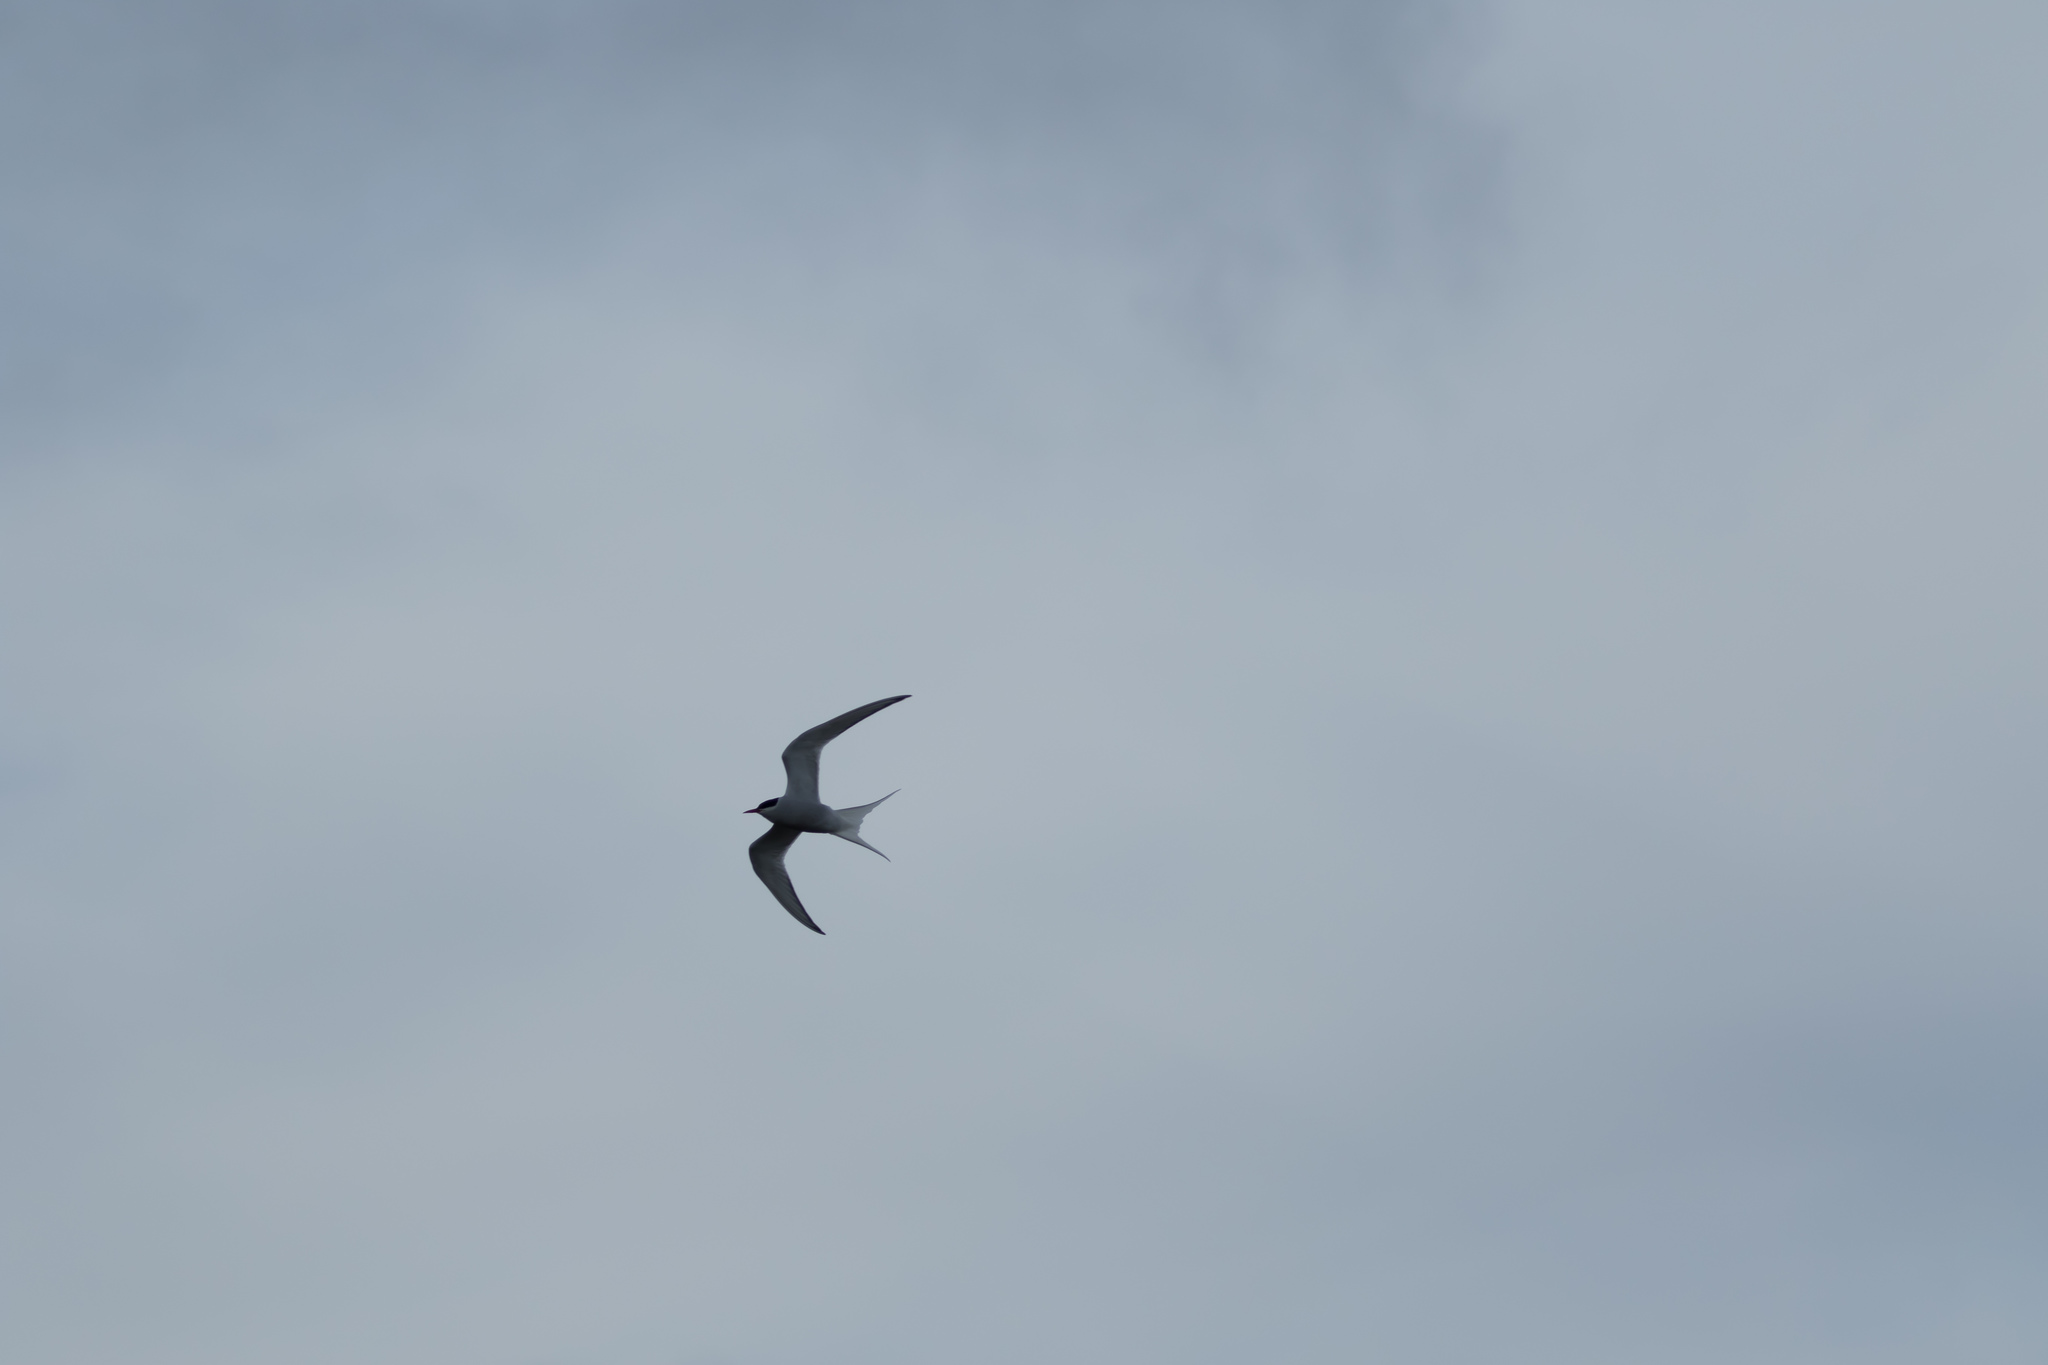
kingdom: Animalia
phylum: Chordata
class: Aves
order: Charadriiformes
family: Laridae
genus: Sterna
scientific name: Sterna paradisaea
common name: Arctic tern
